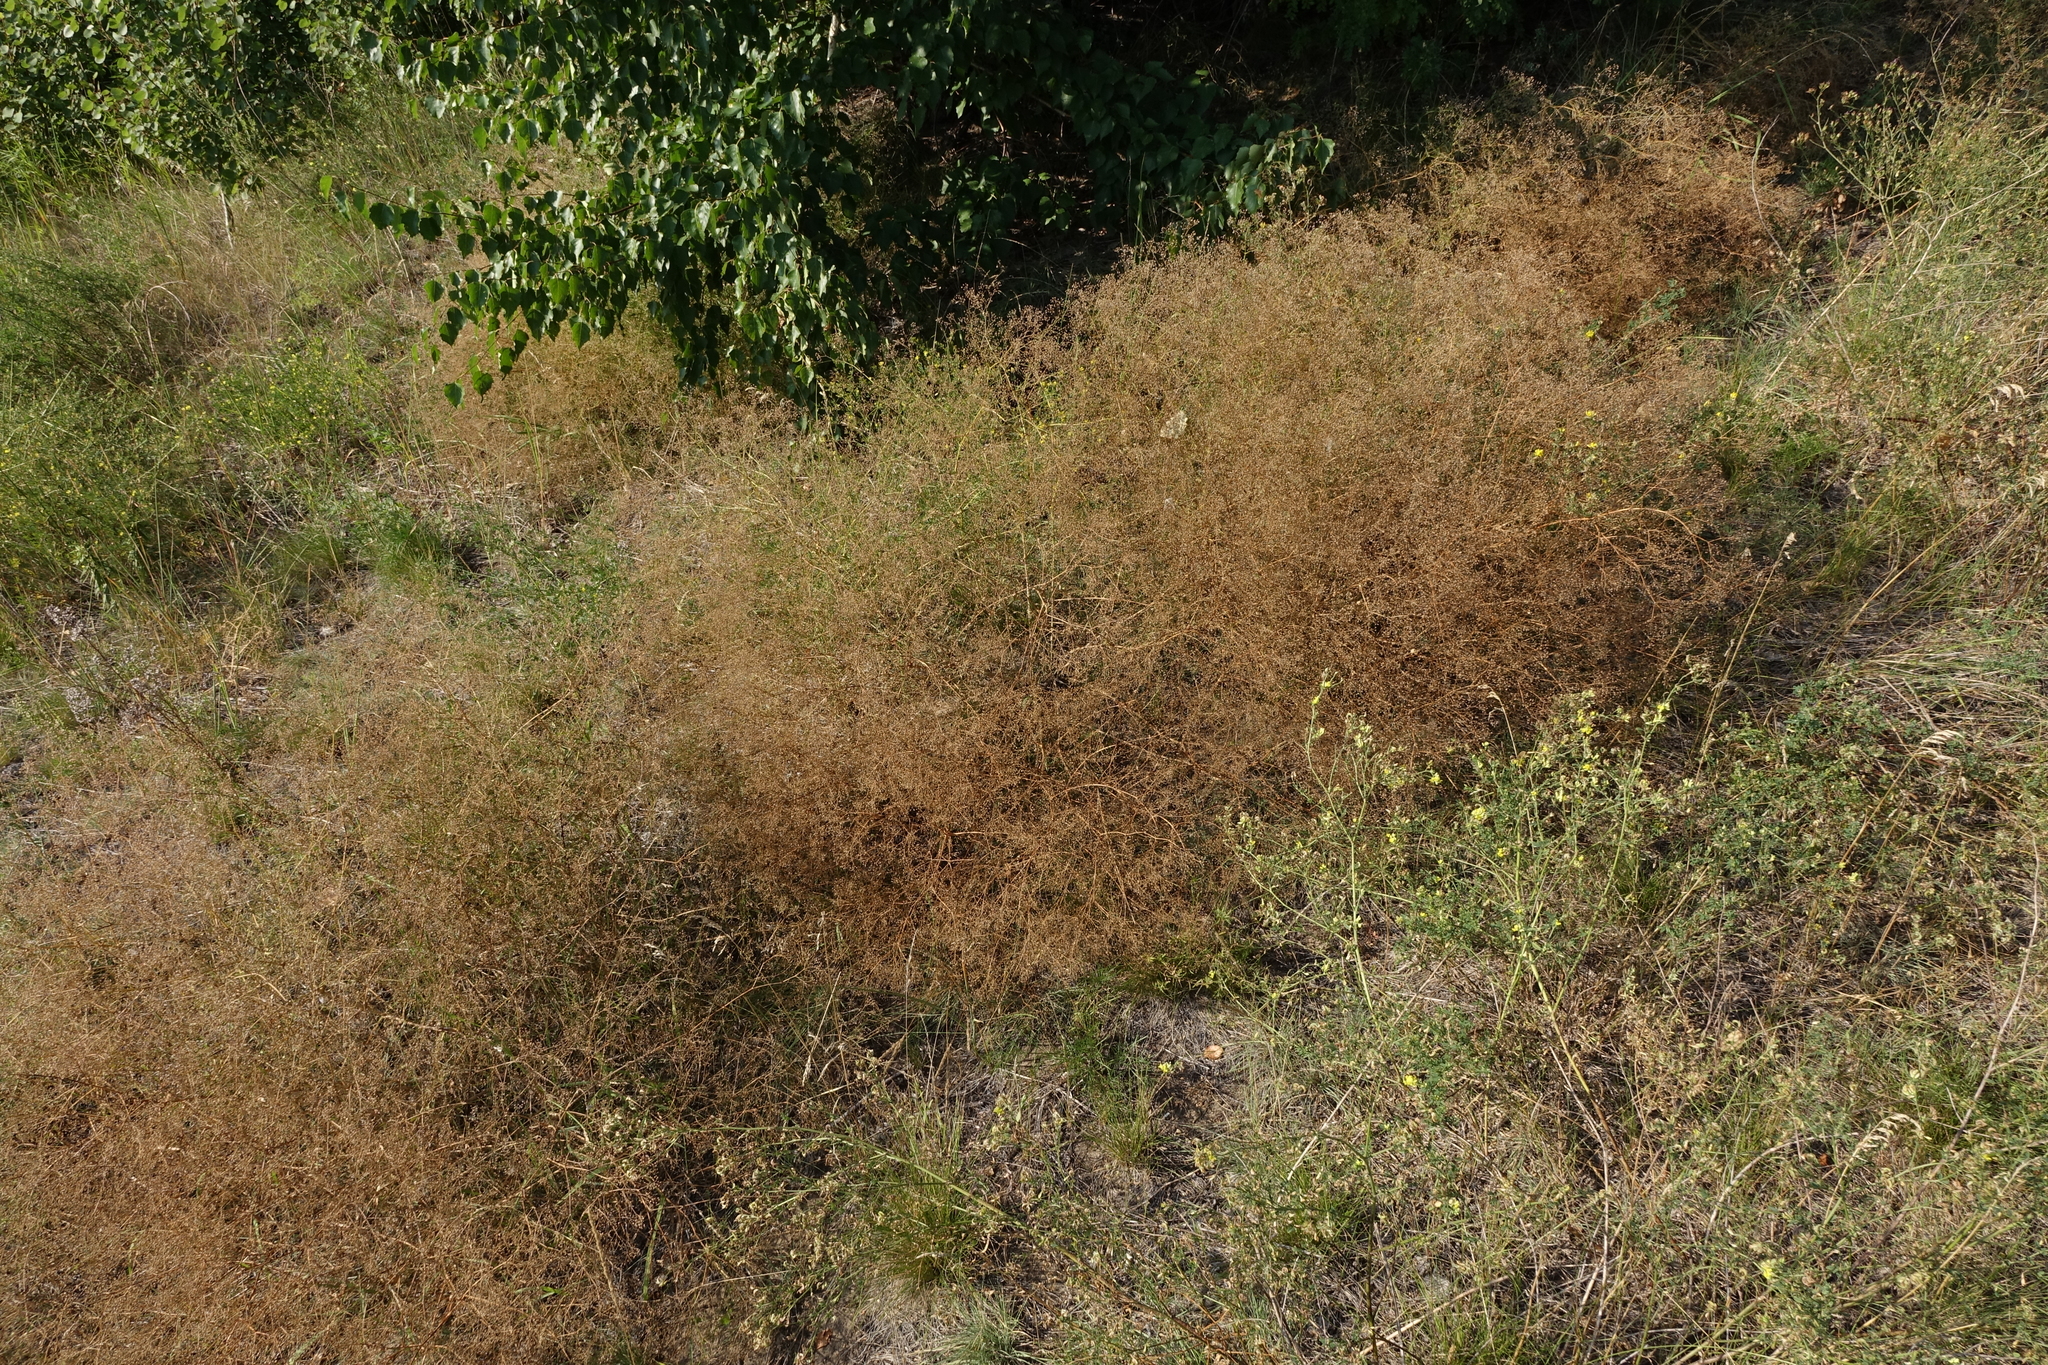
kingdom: Plantae
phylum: Tracheophyta
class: Magnoliopsida
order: Caryophyllales
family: Caryophyllaceae
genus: Gypsophila
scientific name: Gypsophila paniculata
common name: Baby's-breath
